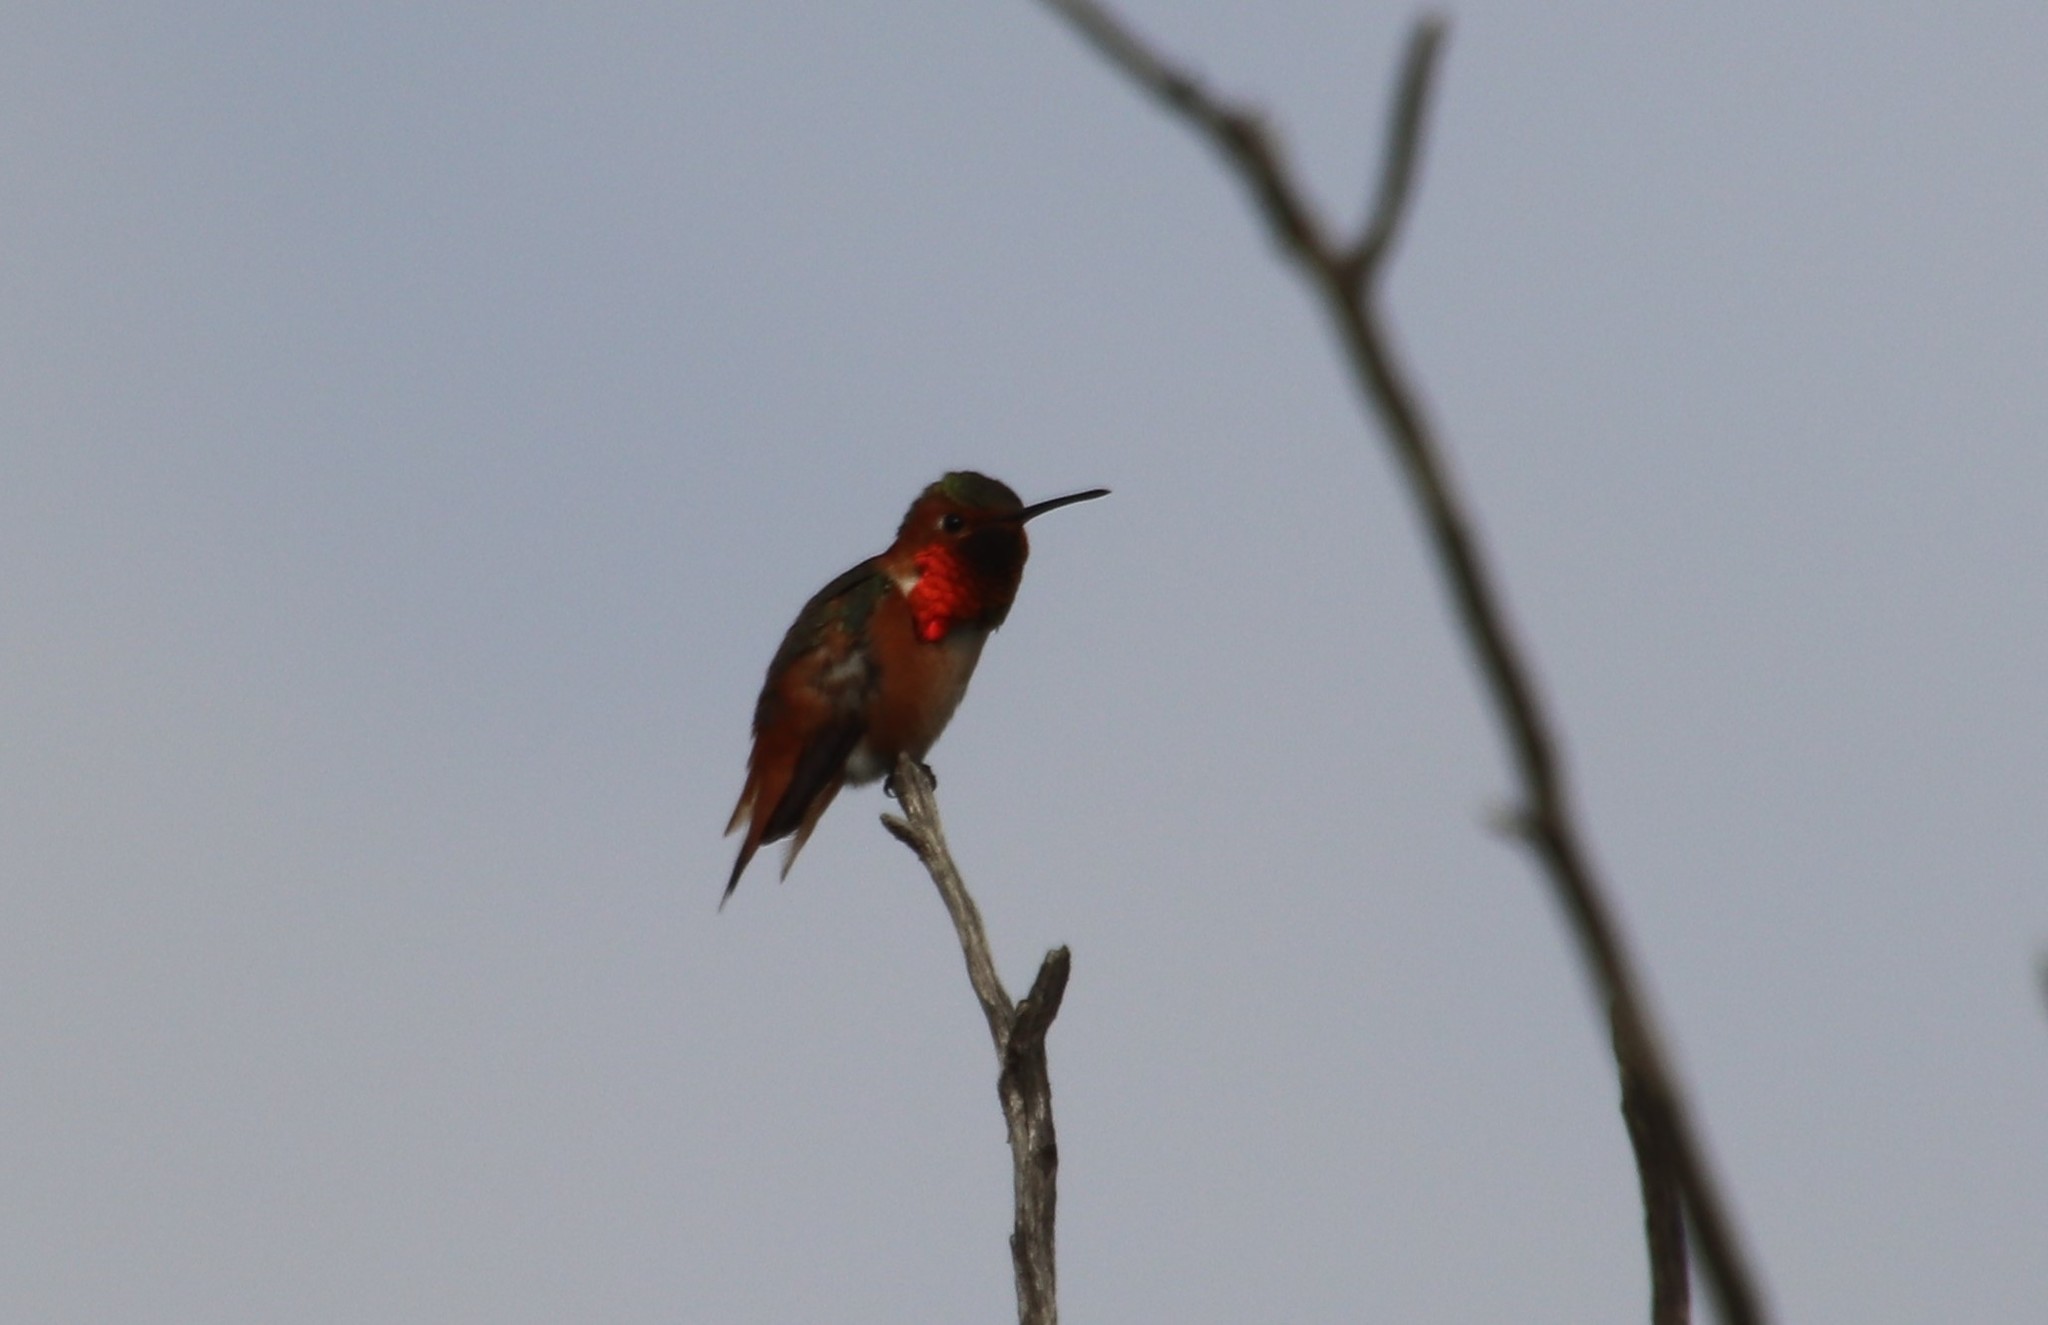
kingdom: Animalia
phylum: Chordata
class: Aves
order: Apodiformes
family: Trochilidae
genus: Selasphorus
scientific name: Selasphorus sasin
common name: Allen's hummingbird
